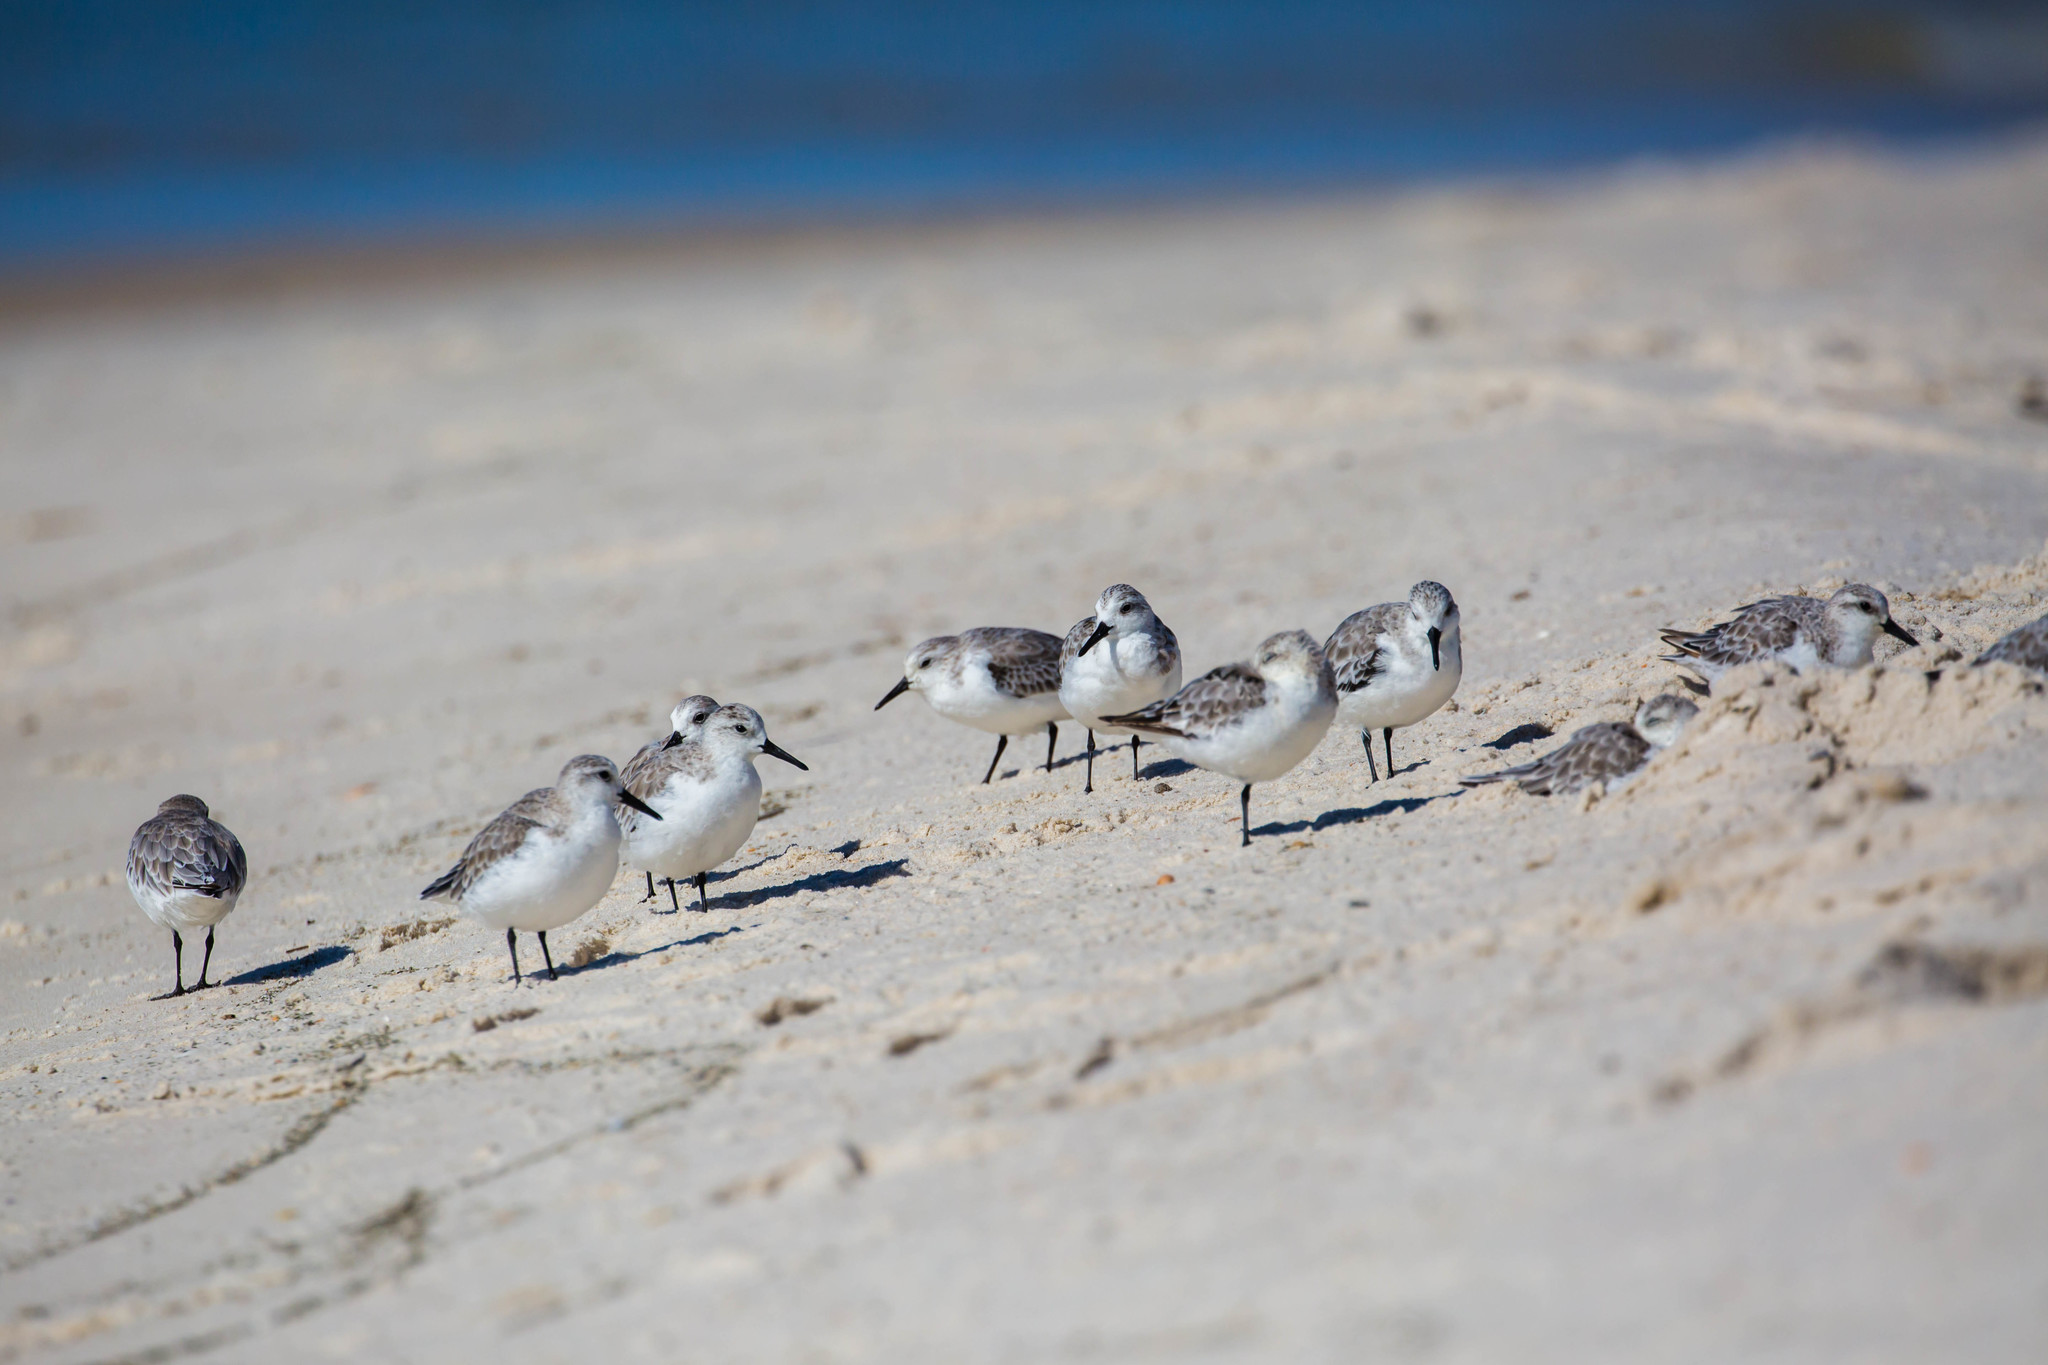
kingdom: Animalia
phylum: Chordata
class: Aves
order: Charadriiformes
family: Scolopacidae
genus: Calidris
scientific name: Calidris alba
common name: Sanderling
